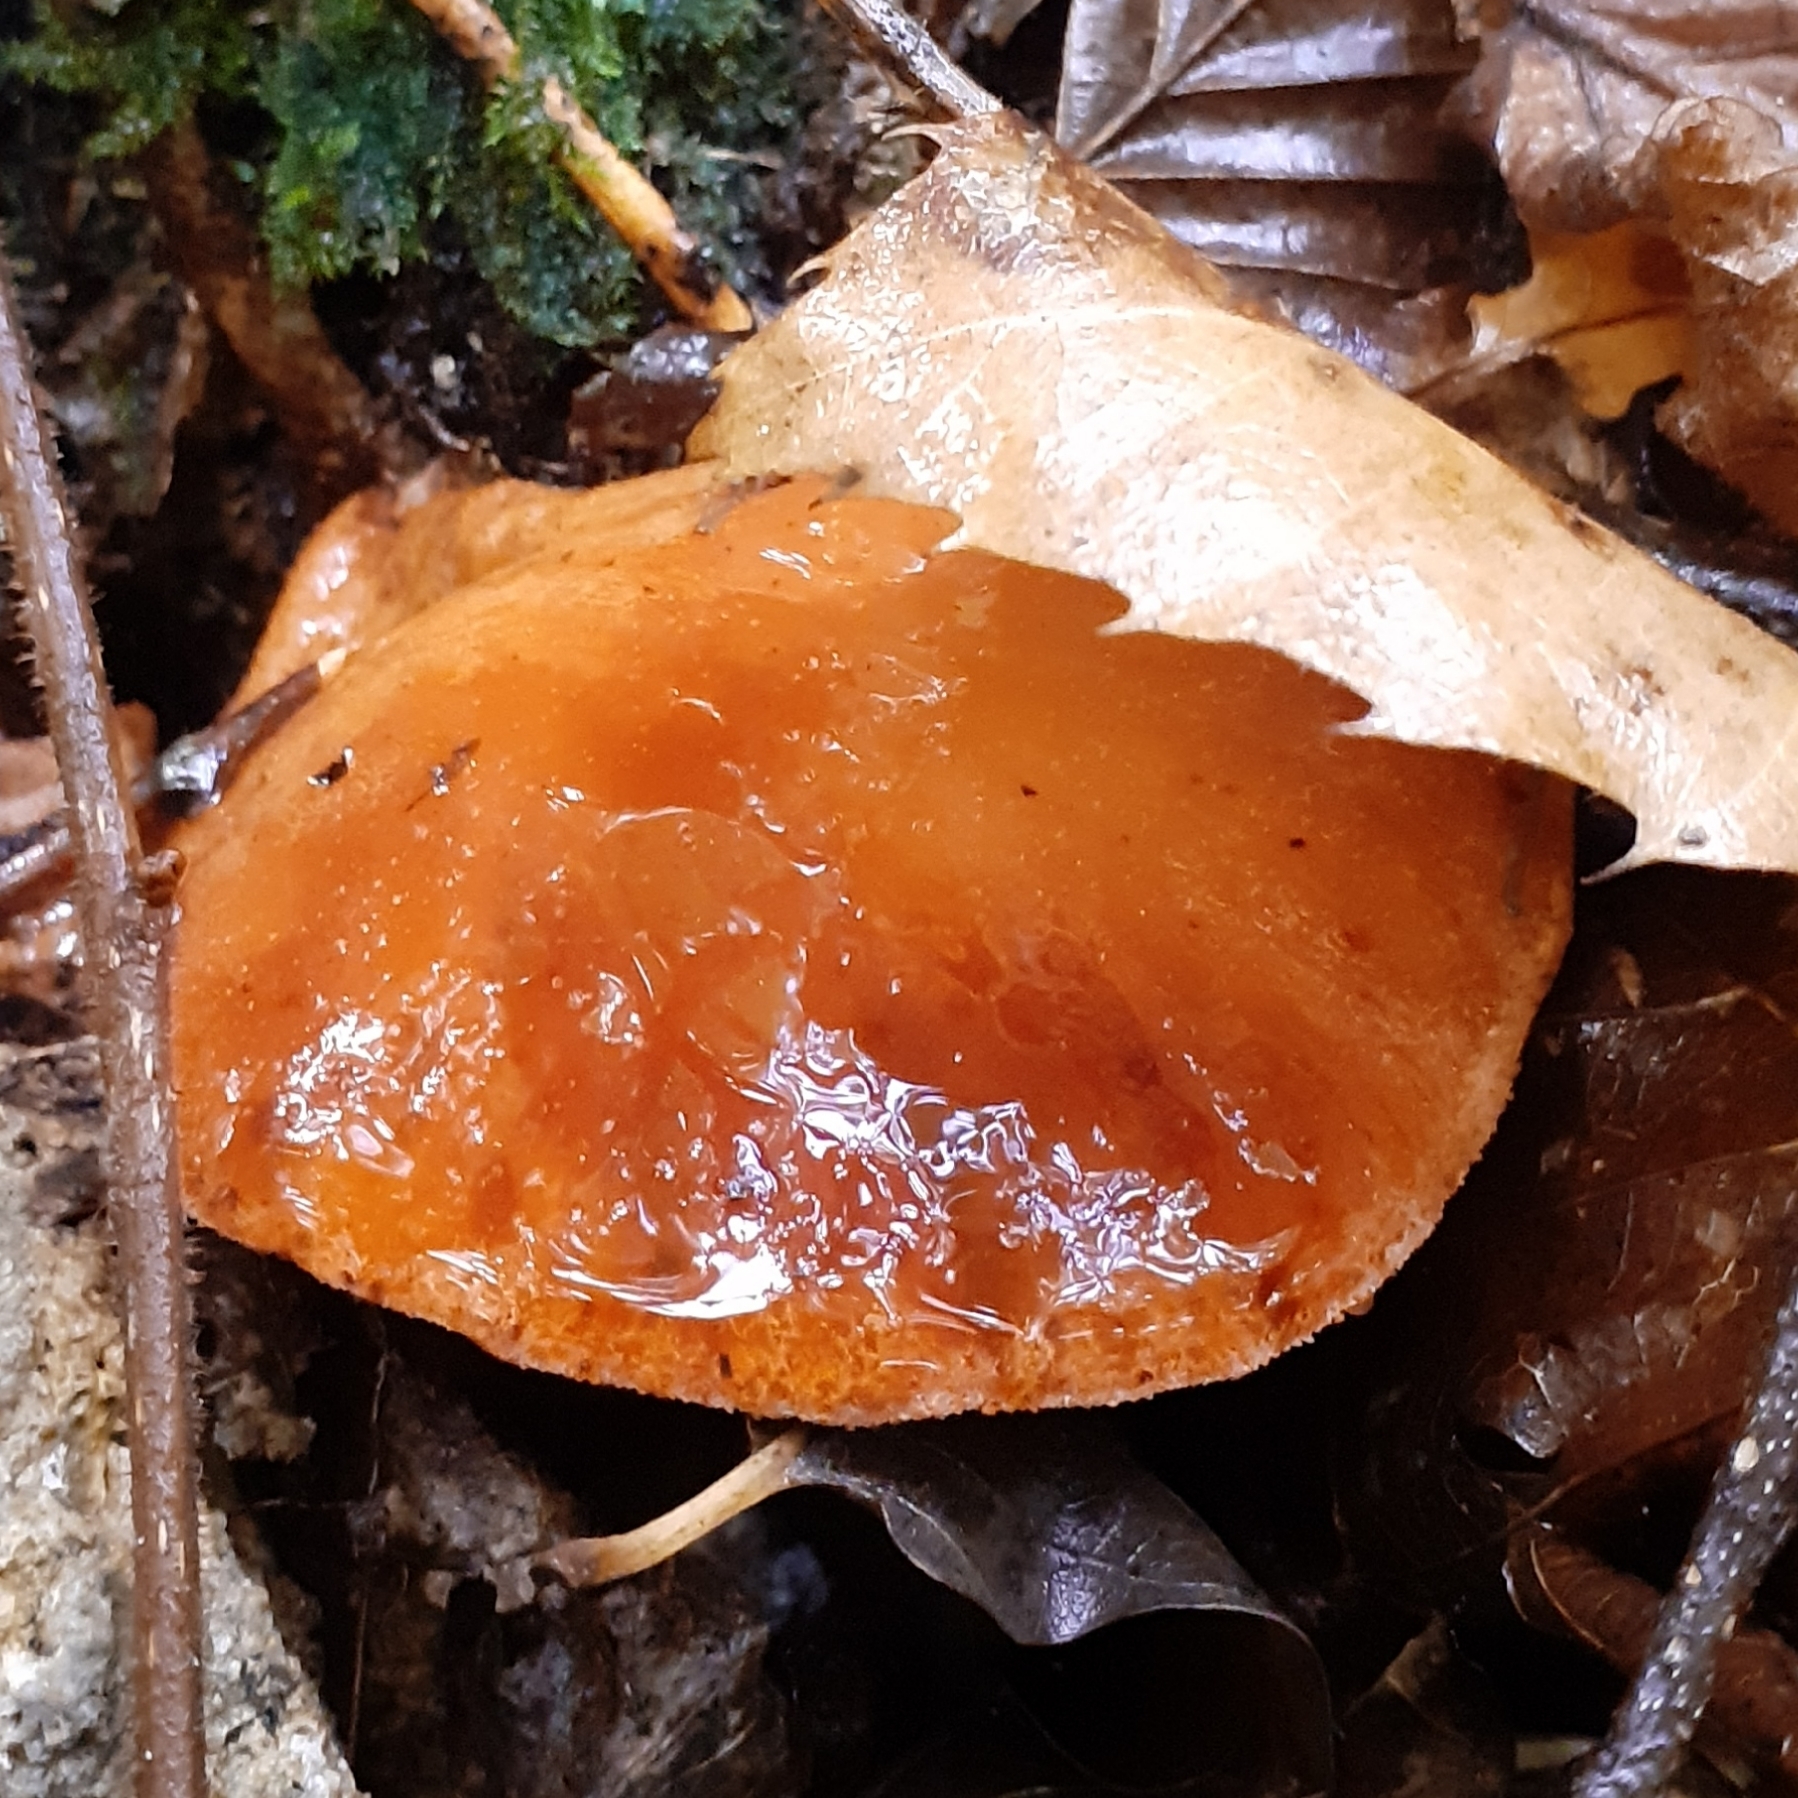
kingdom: Fungi
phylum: Basidiomycota
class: Agaricomycetes
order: Agaricales
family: Fistulinaceae
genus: Fistulina
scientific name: Fistulina hepatica
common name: Beef-steak fungus
